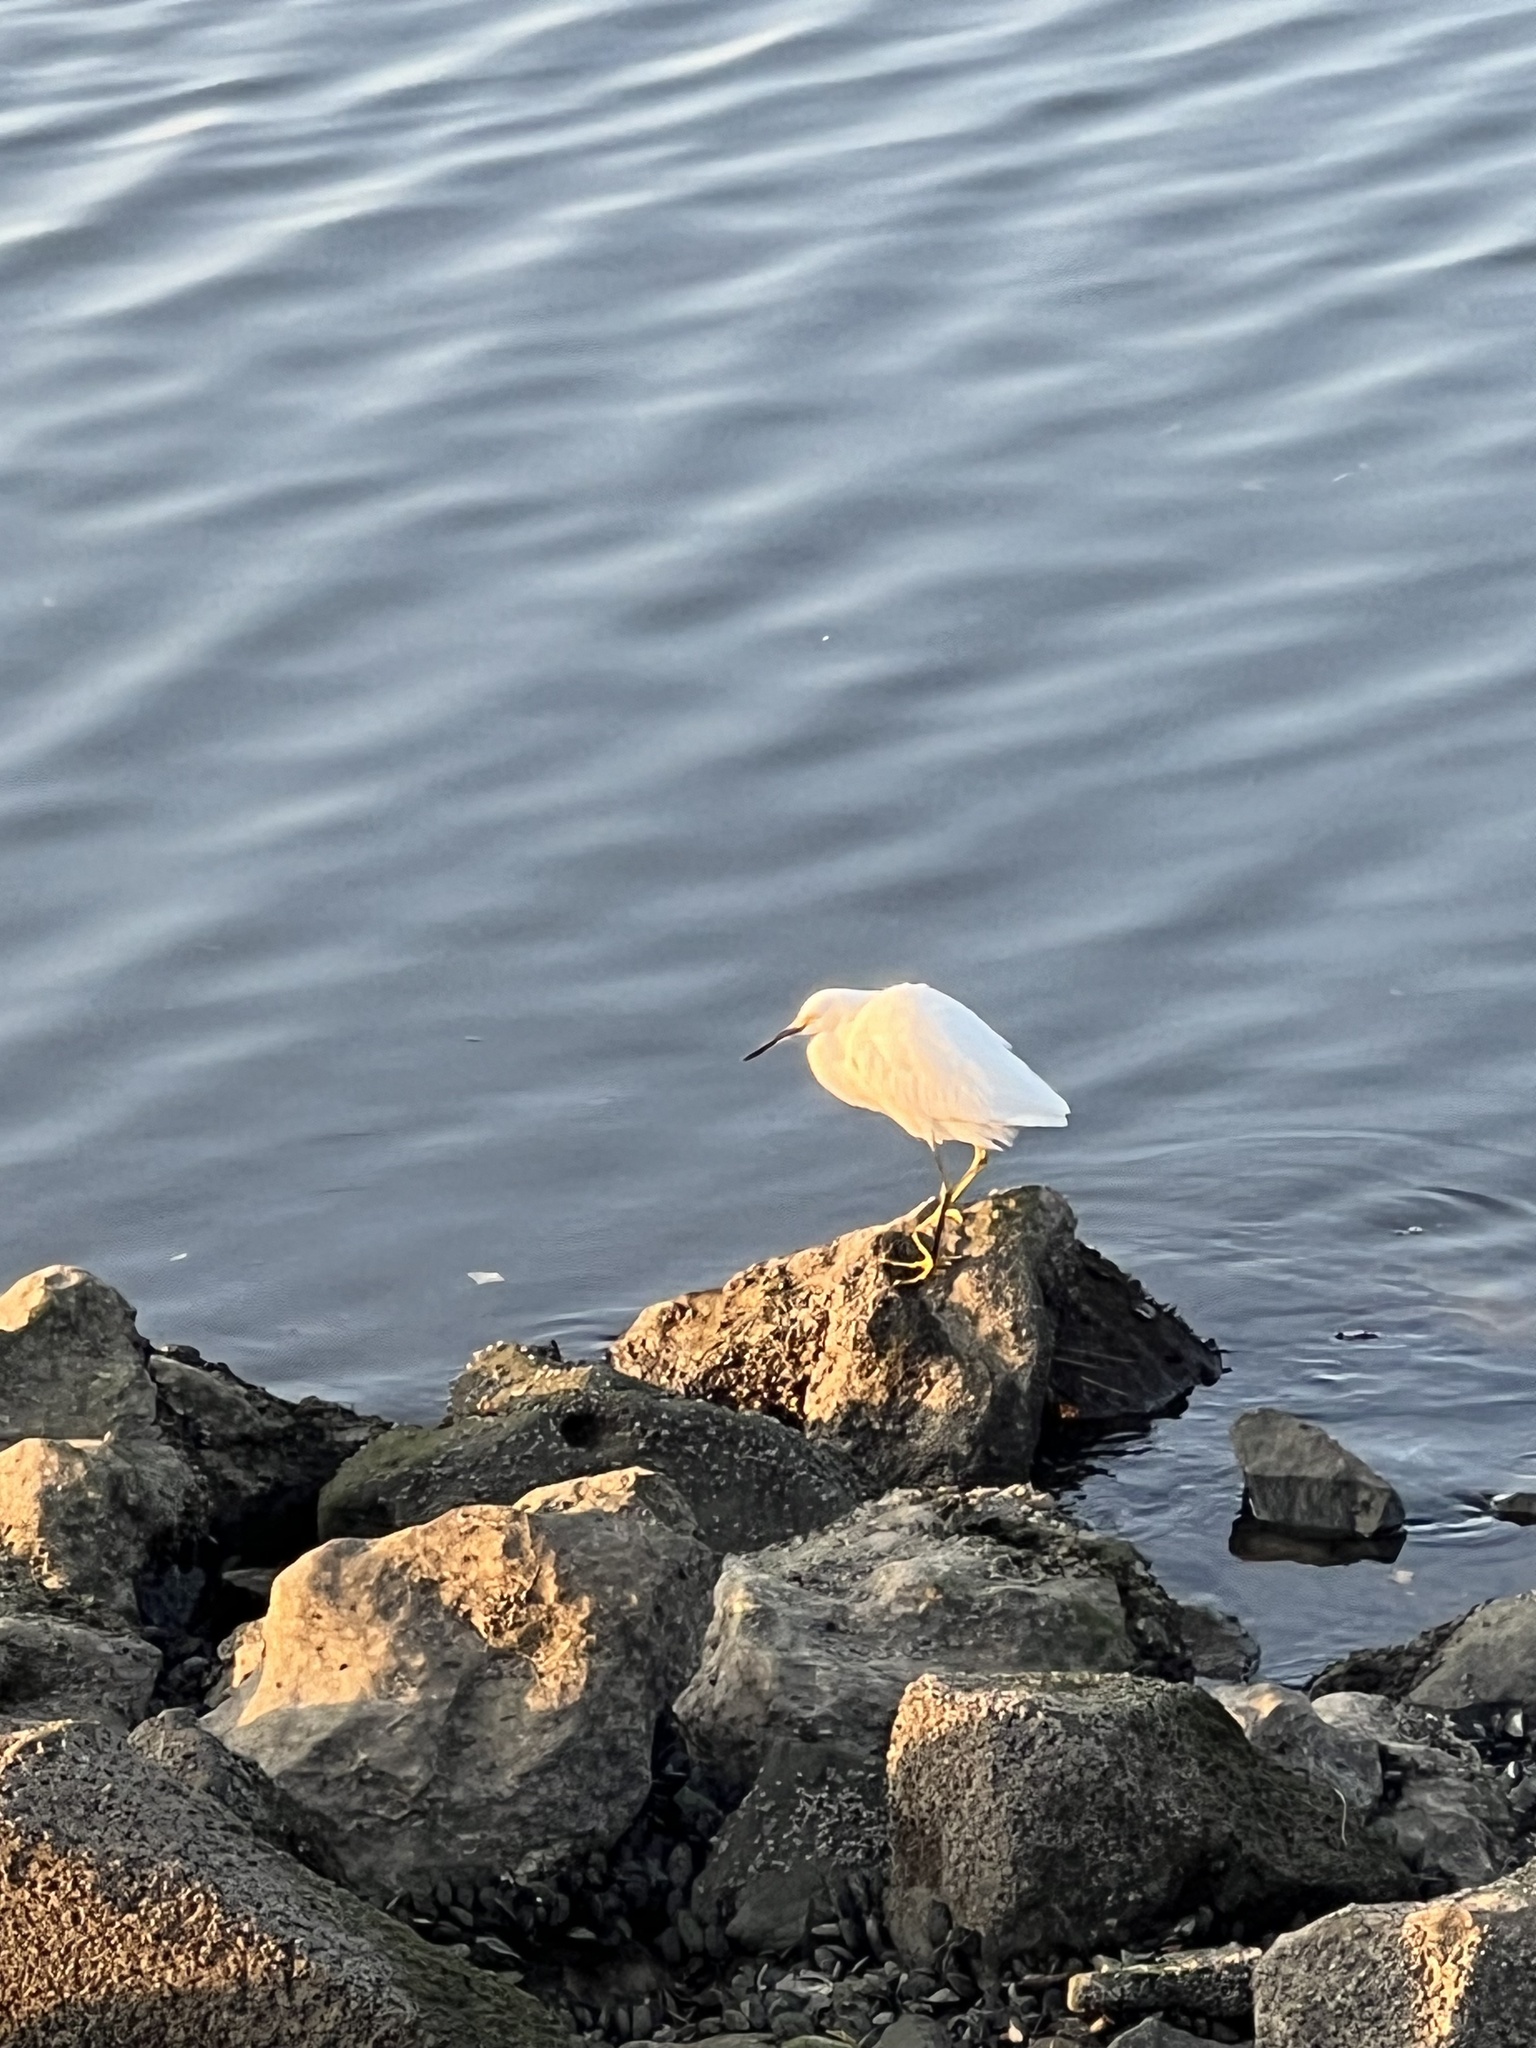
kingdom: Animalia
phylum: Chordata
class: Aves
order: Pelecaniformes
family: Ardeidae
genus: Egretta
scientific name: Egretta thula
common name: Snowy egret
